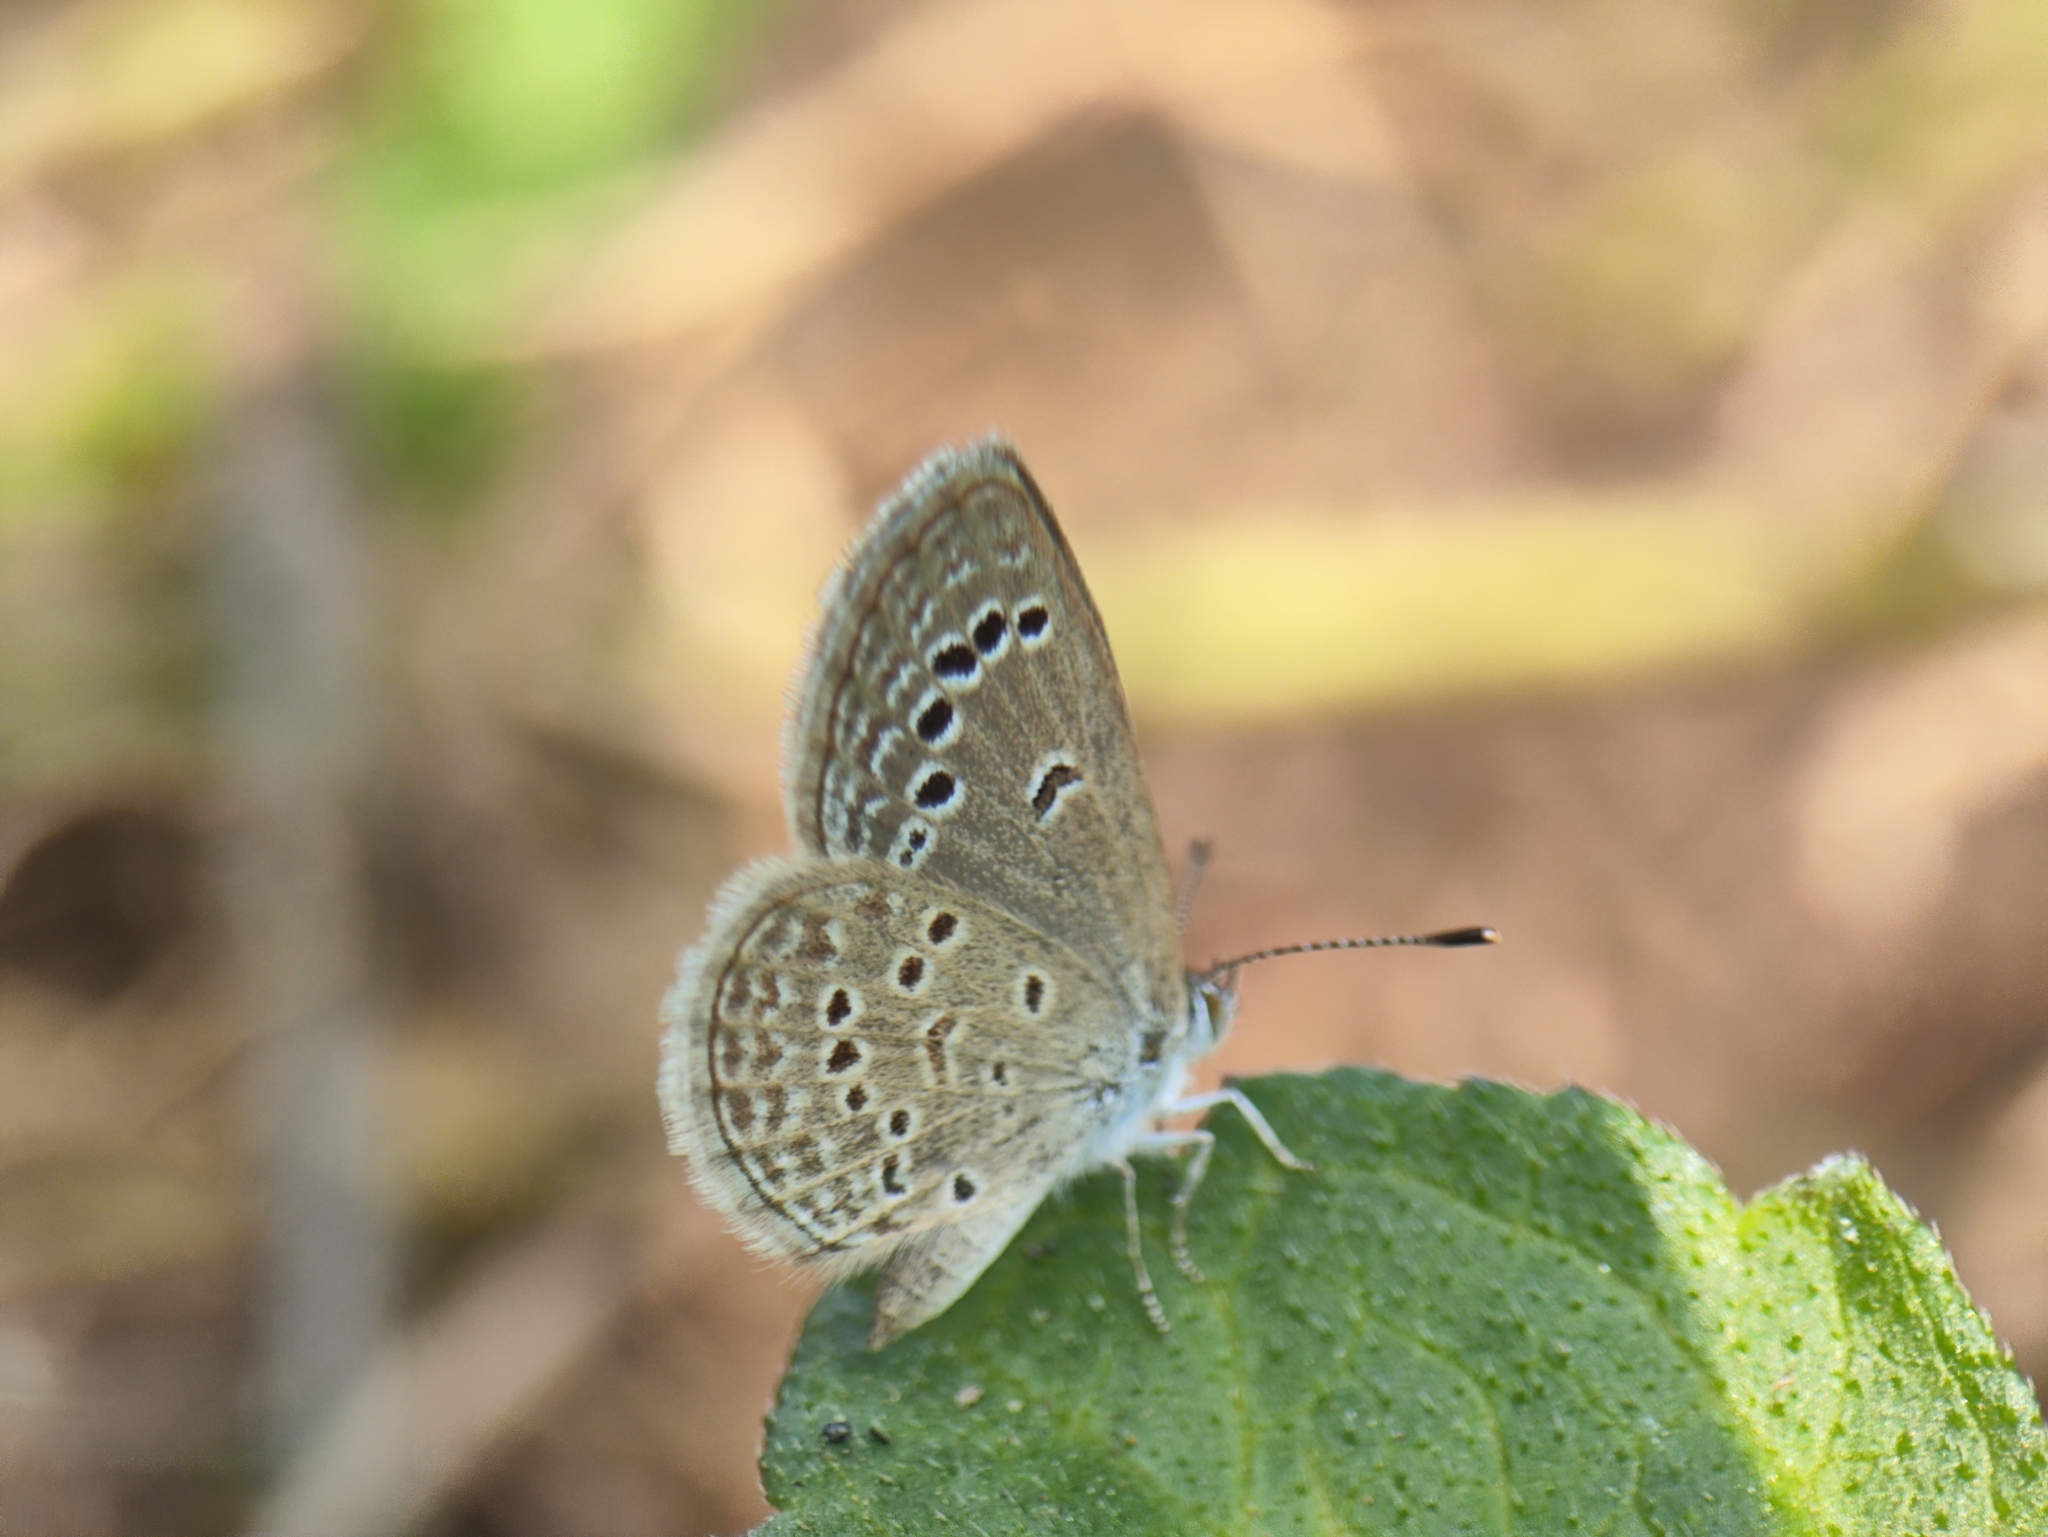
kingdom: Animalia
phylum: Arthropoda
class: Insecta
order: Lepidoptera
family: Lycaenidae
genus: Zizina
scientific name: Zizina otis
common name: Lesser grass blue
